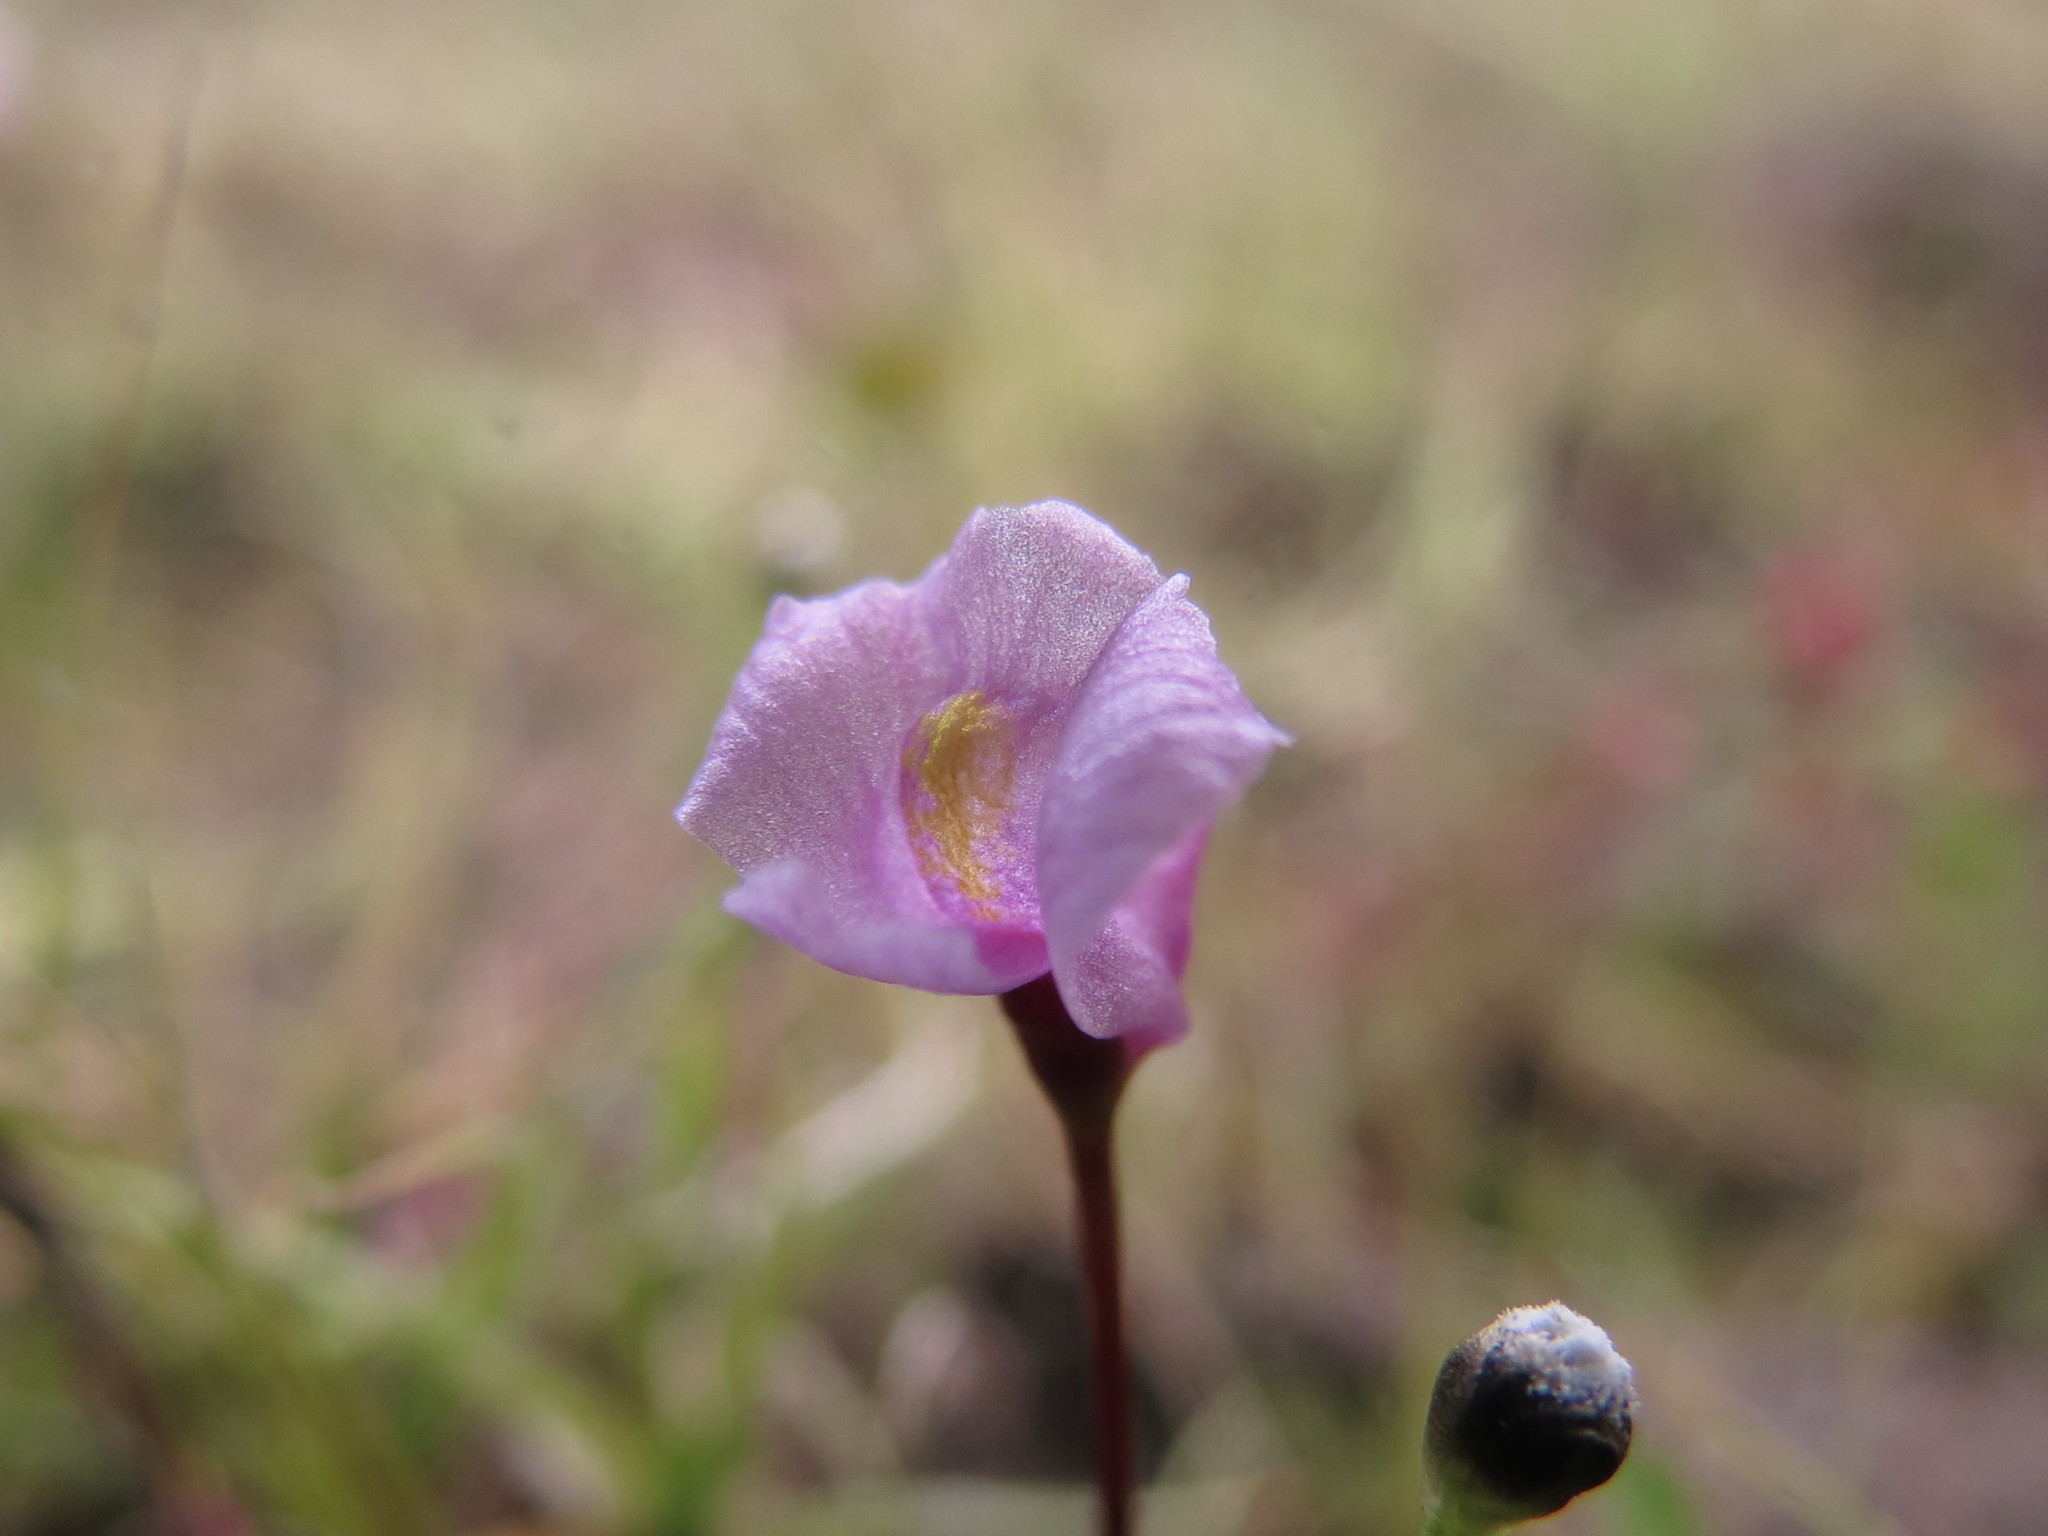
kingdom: Plantae
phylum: Tracheophyta
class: Magnoliopsida
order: Lamiales
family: Lentibulariaceae
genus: Utricularia
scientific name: Utricularia resupinata
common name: Northeastern bladderwort
